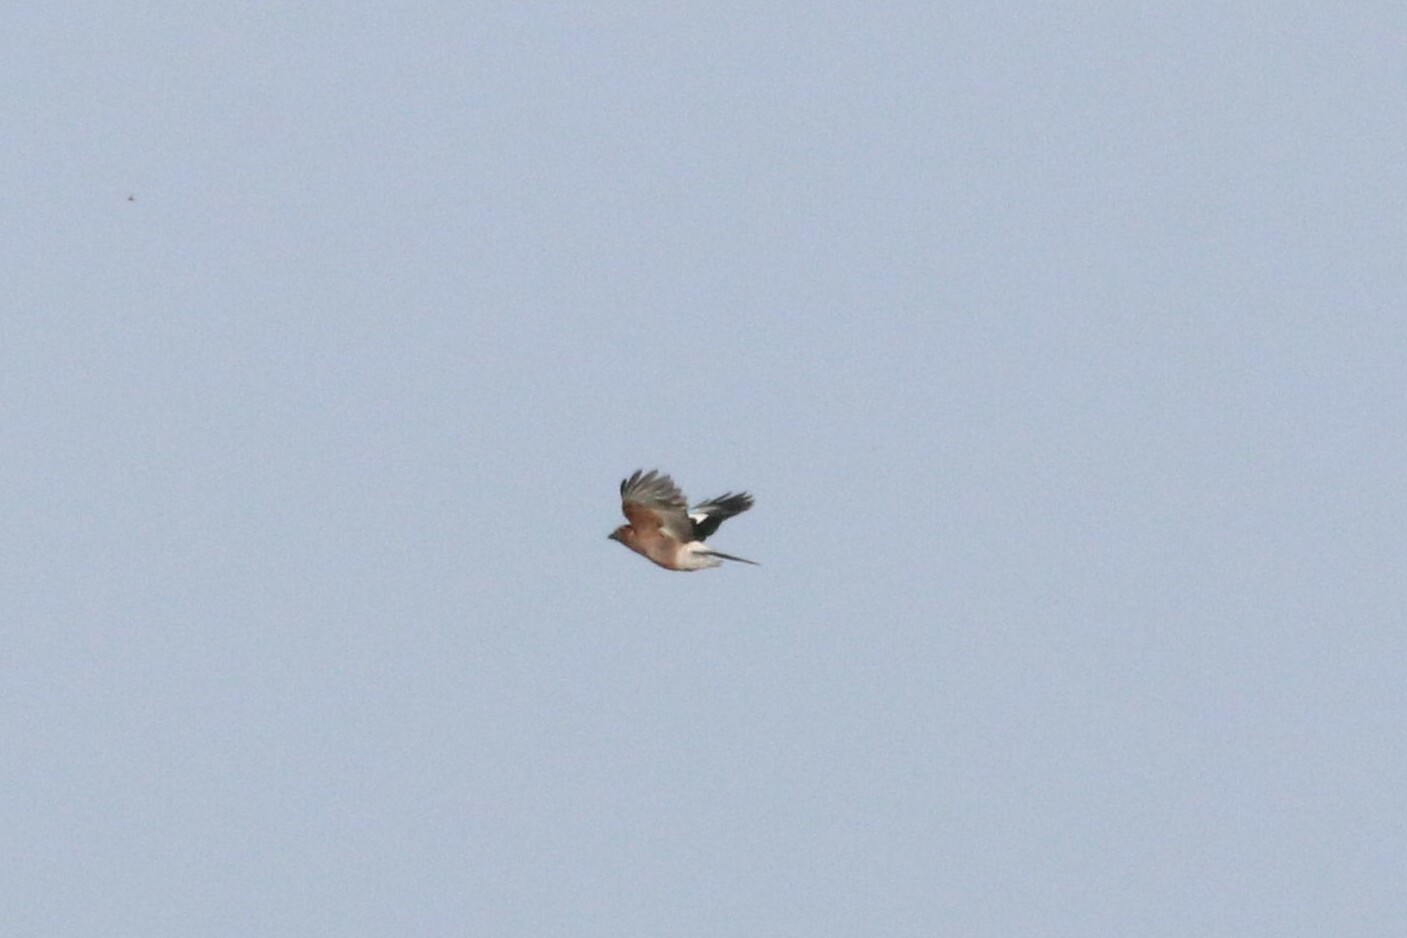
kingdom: Animalia
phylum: Chordata
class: Aves
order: Passeriformes
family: Corvidae
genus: Garrulus
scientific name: Garrulus glandarius
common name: Eurasian jay
